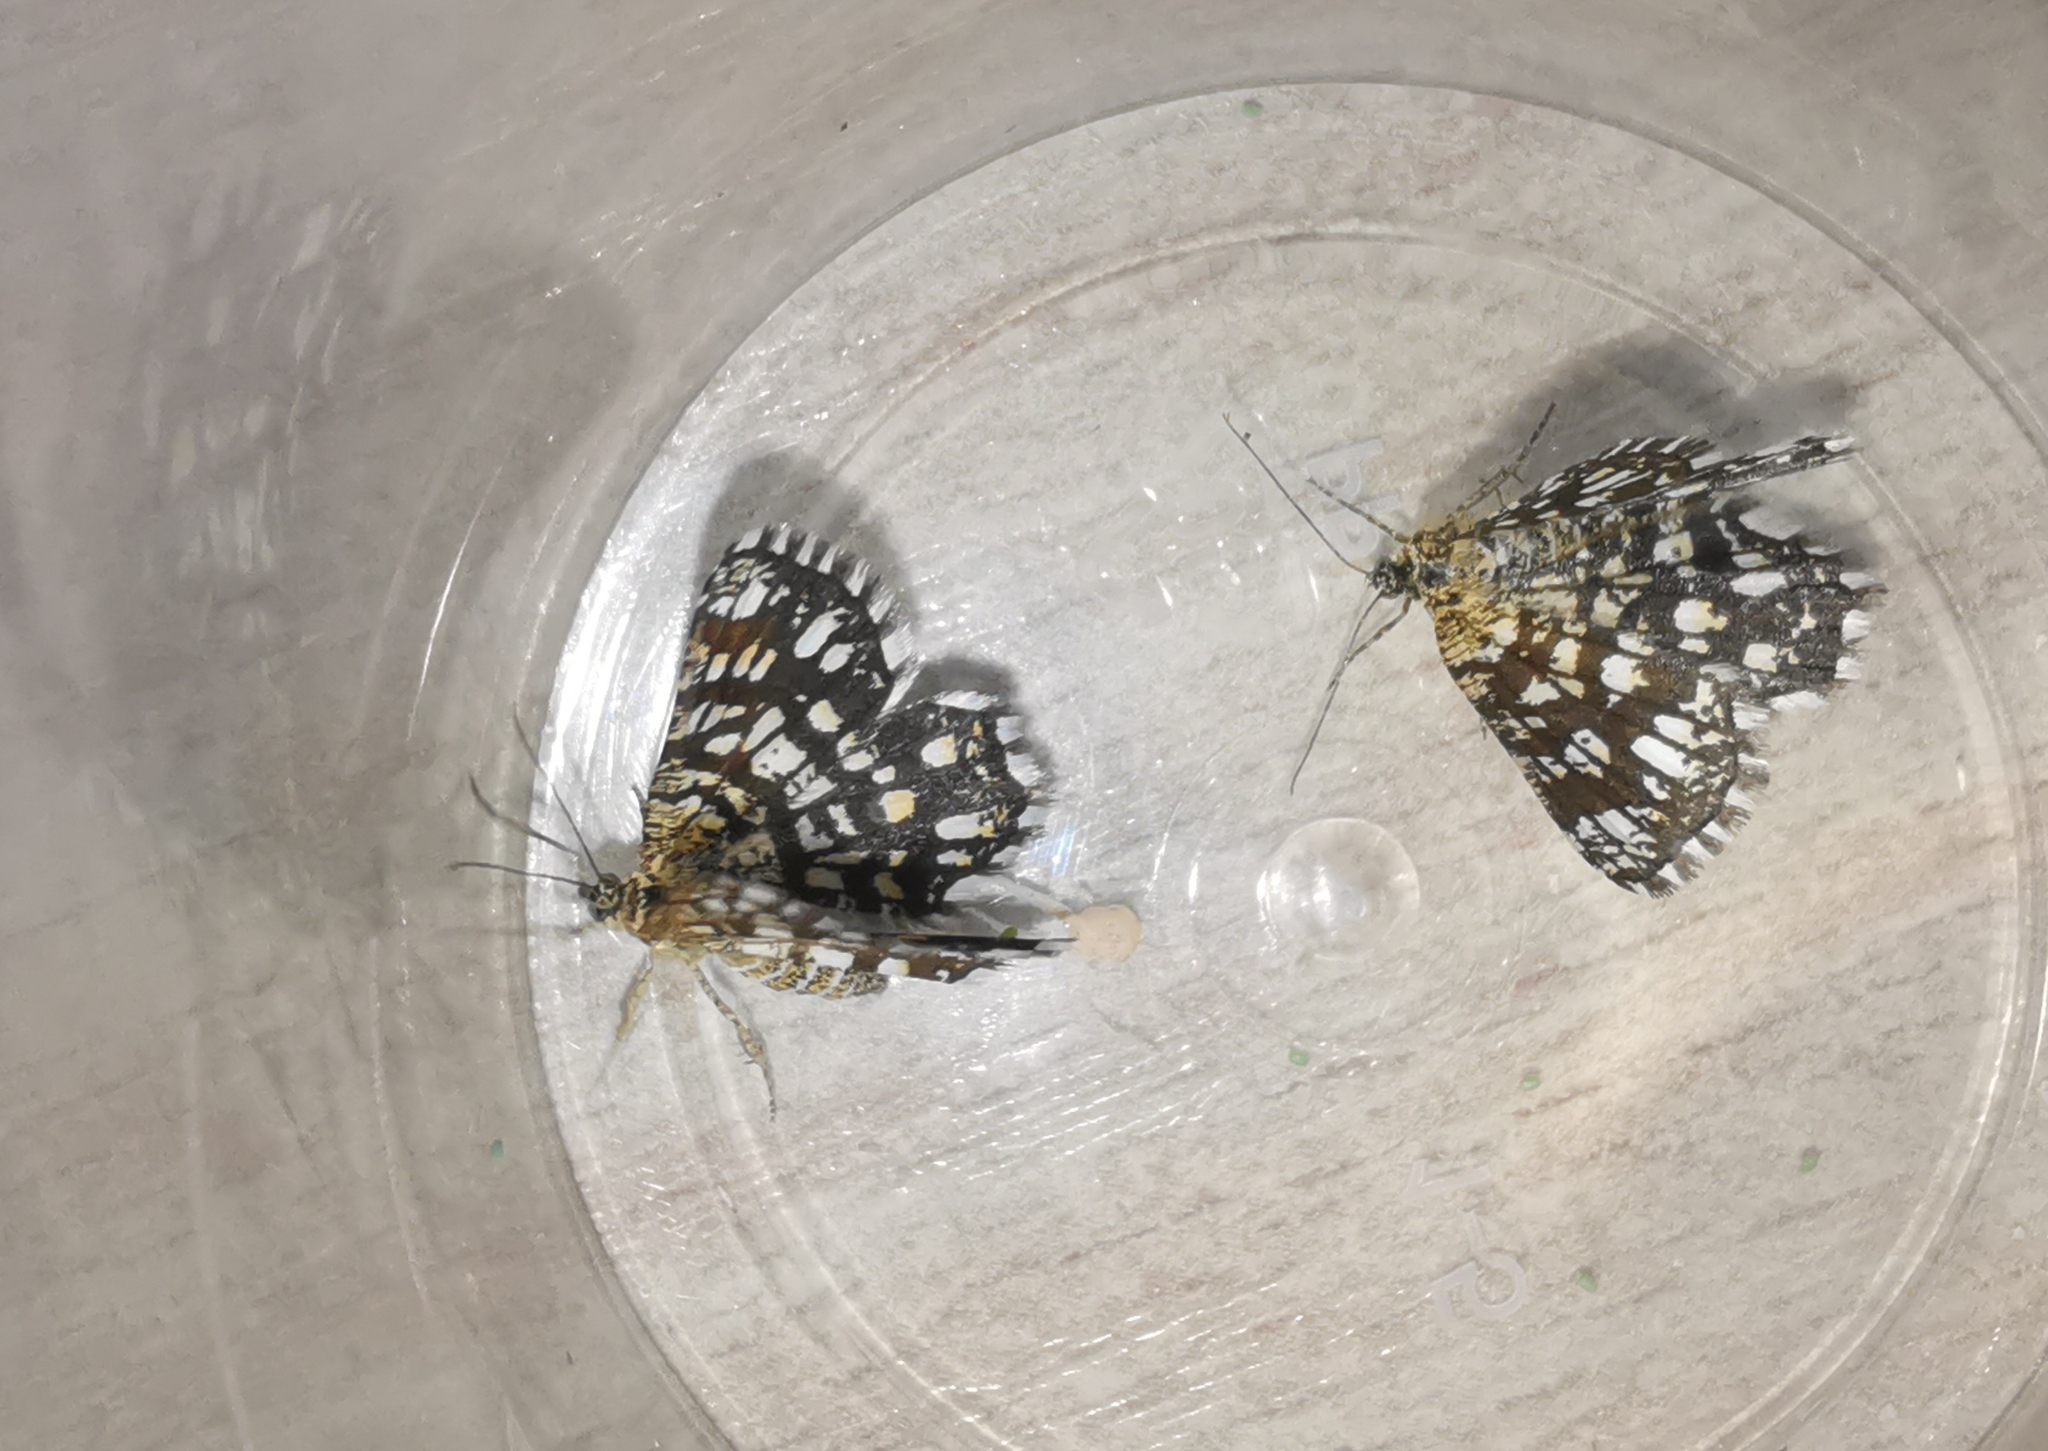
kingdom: Animalia
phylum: Arthropoda
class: Insecta
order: Lepidoptera
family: Geometridae
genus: Chiasmia
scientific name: Chiasmia clathrata
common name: Latticed heath
